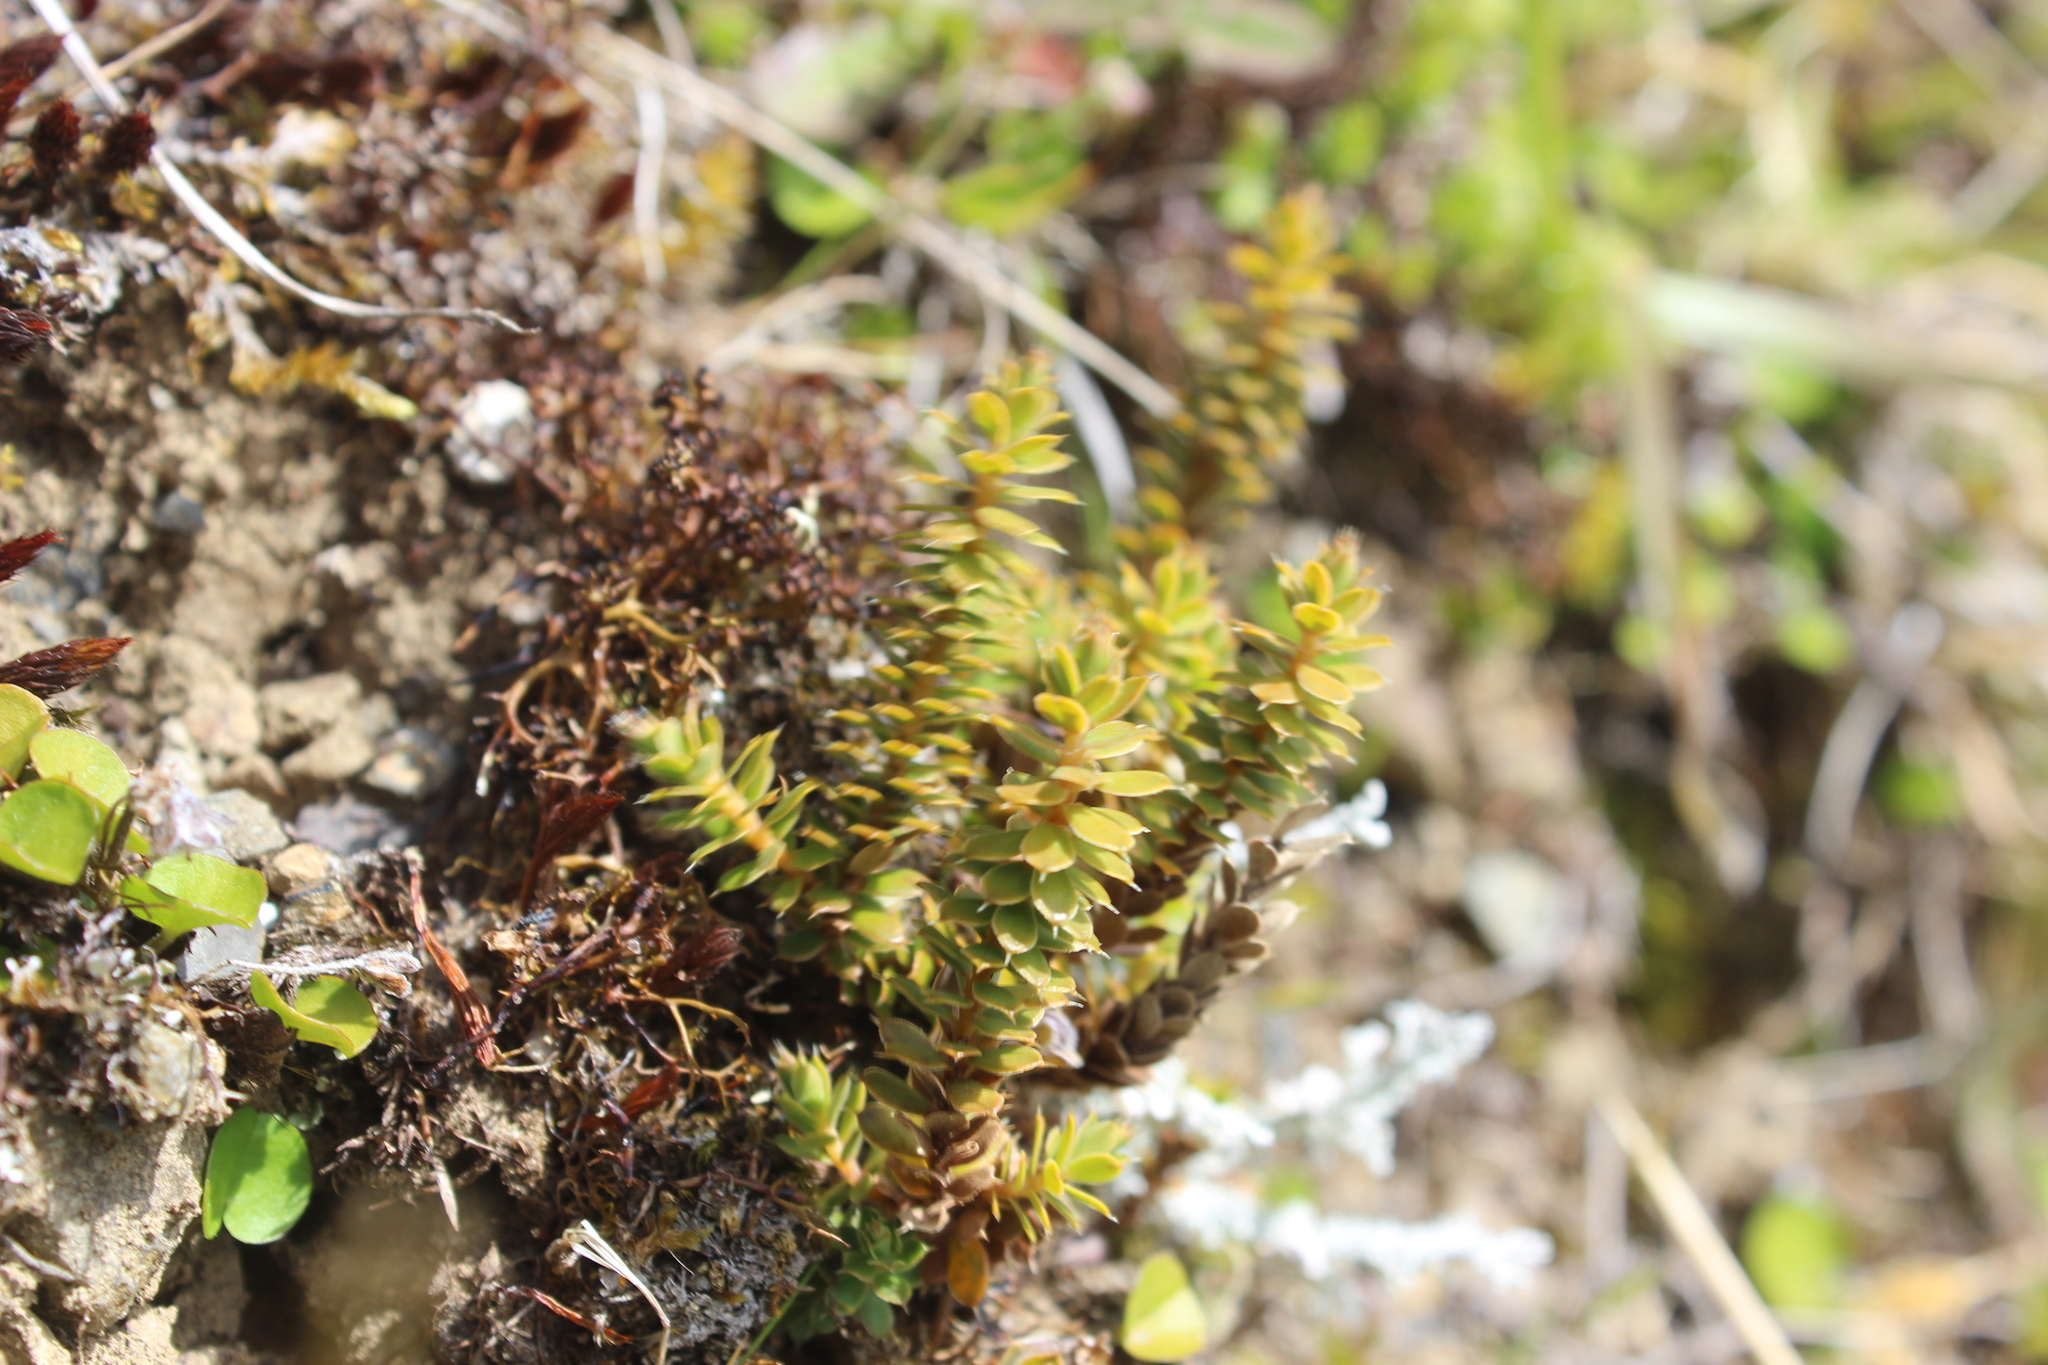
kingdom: Plantae
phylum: Tracheophyta
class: Magnoliopsida
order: Ericales
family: Ericaceae
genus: Styphelia
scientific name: Styphelia nesophila
